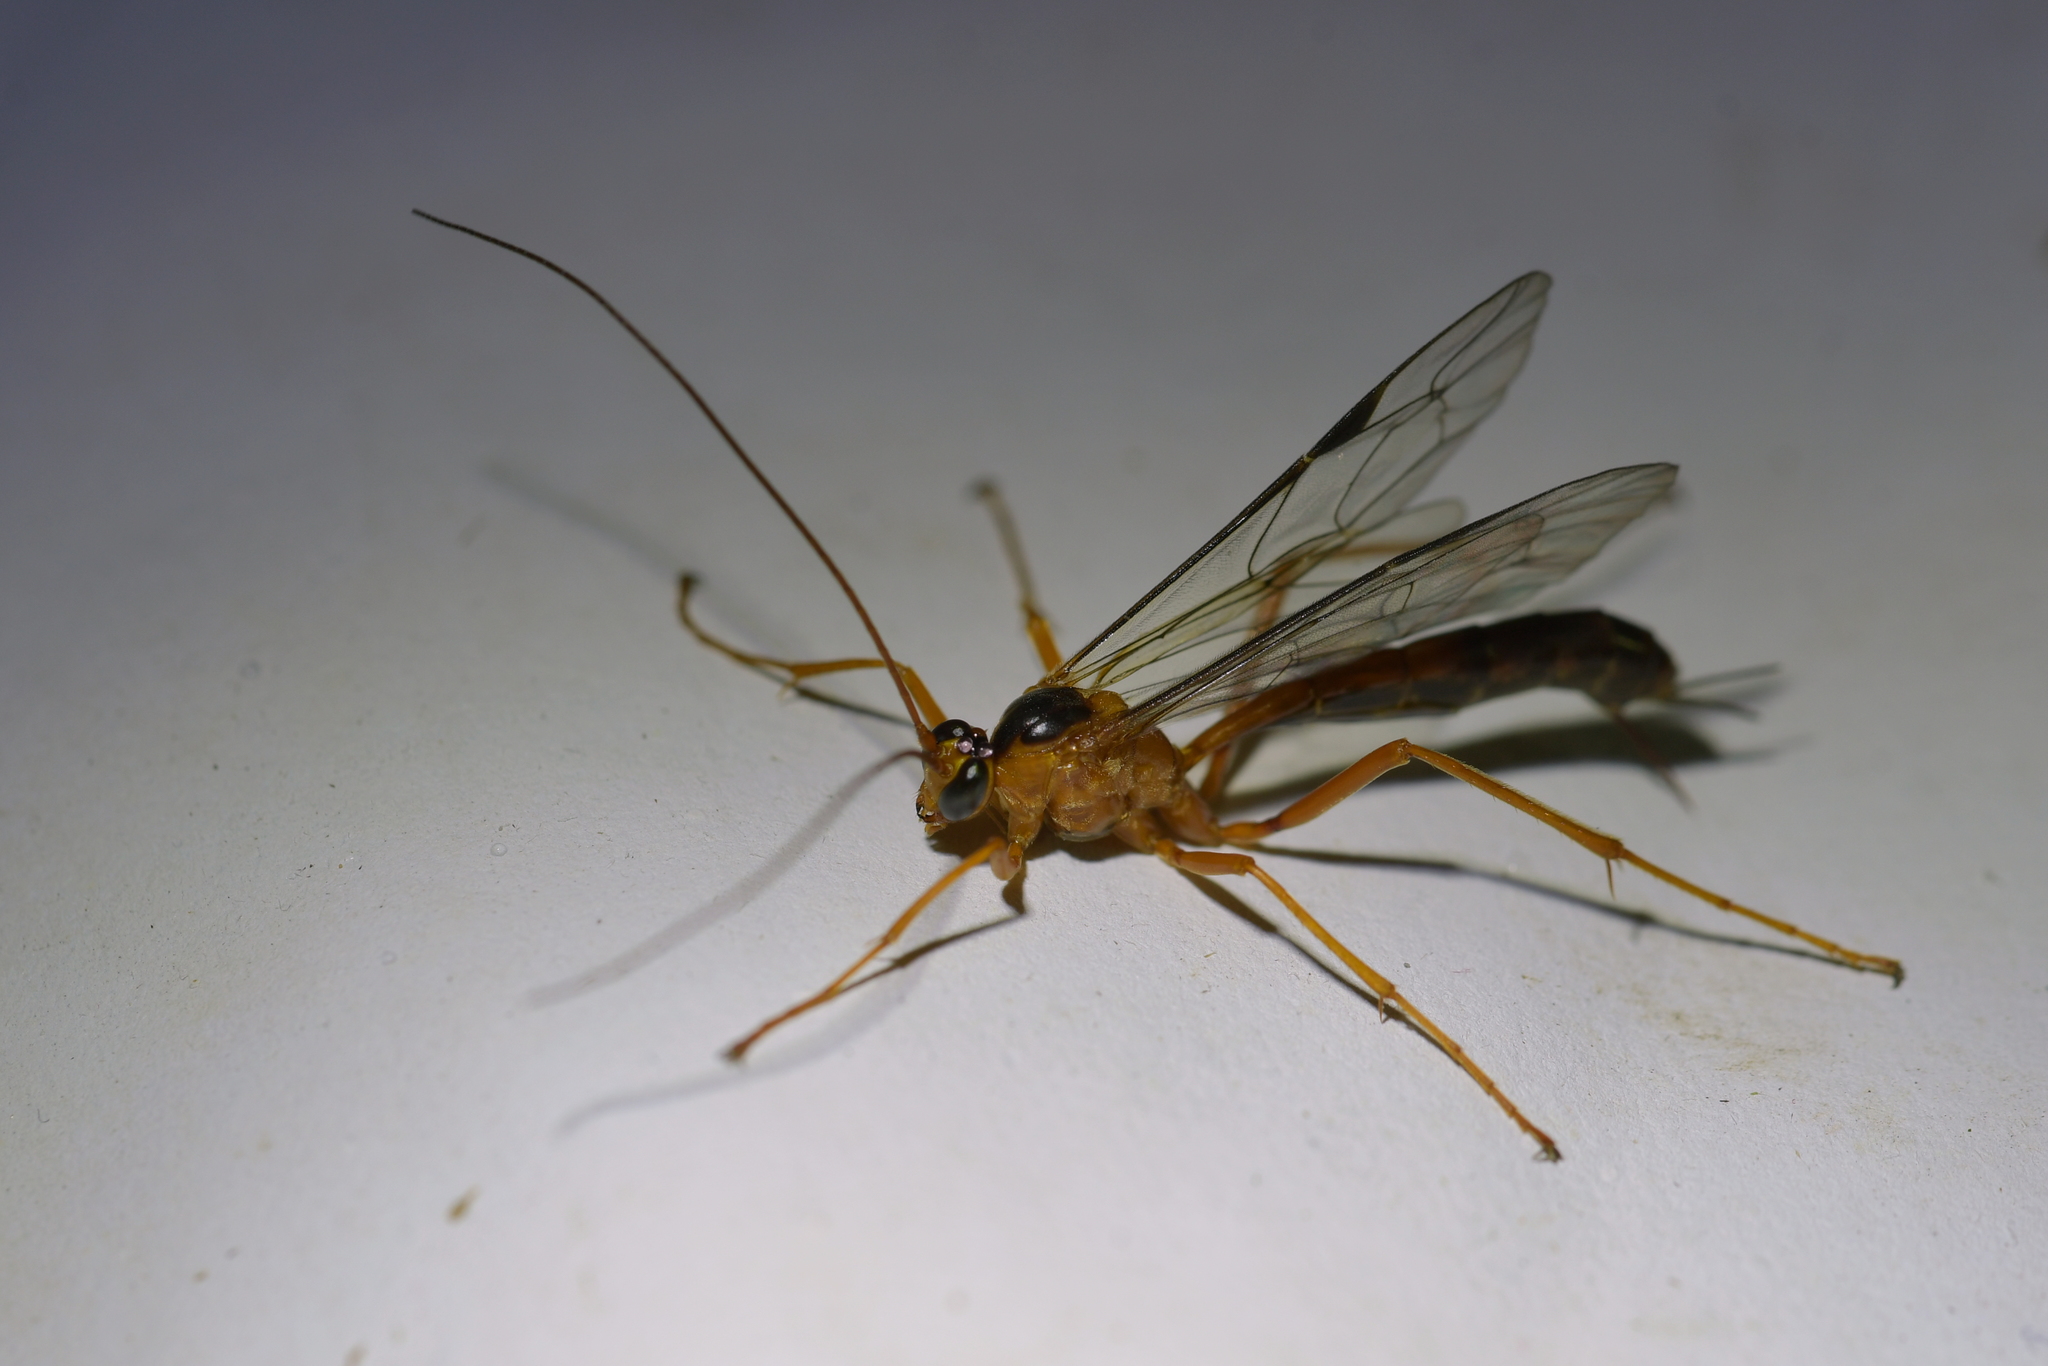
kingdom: Animalia
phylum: Arthropoda
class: Insecta
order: Hymenoptera
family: Ichneumonidae
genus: Netelia
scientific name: Netelia ephippiata
